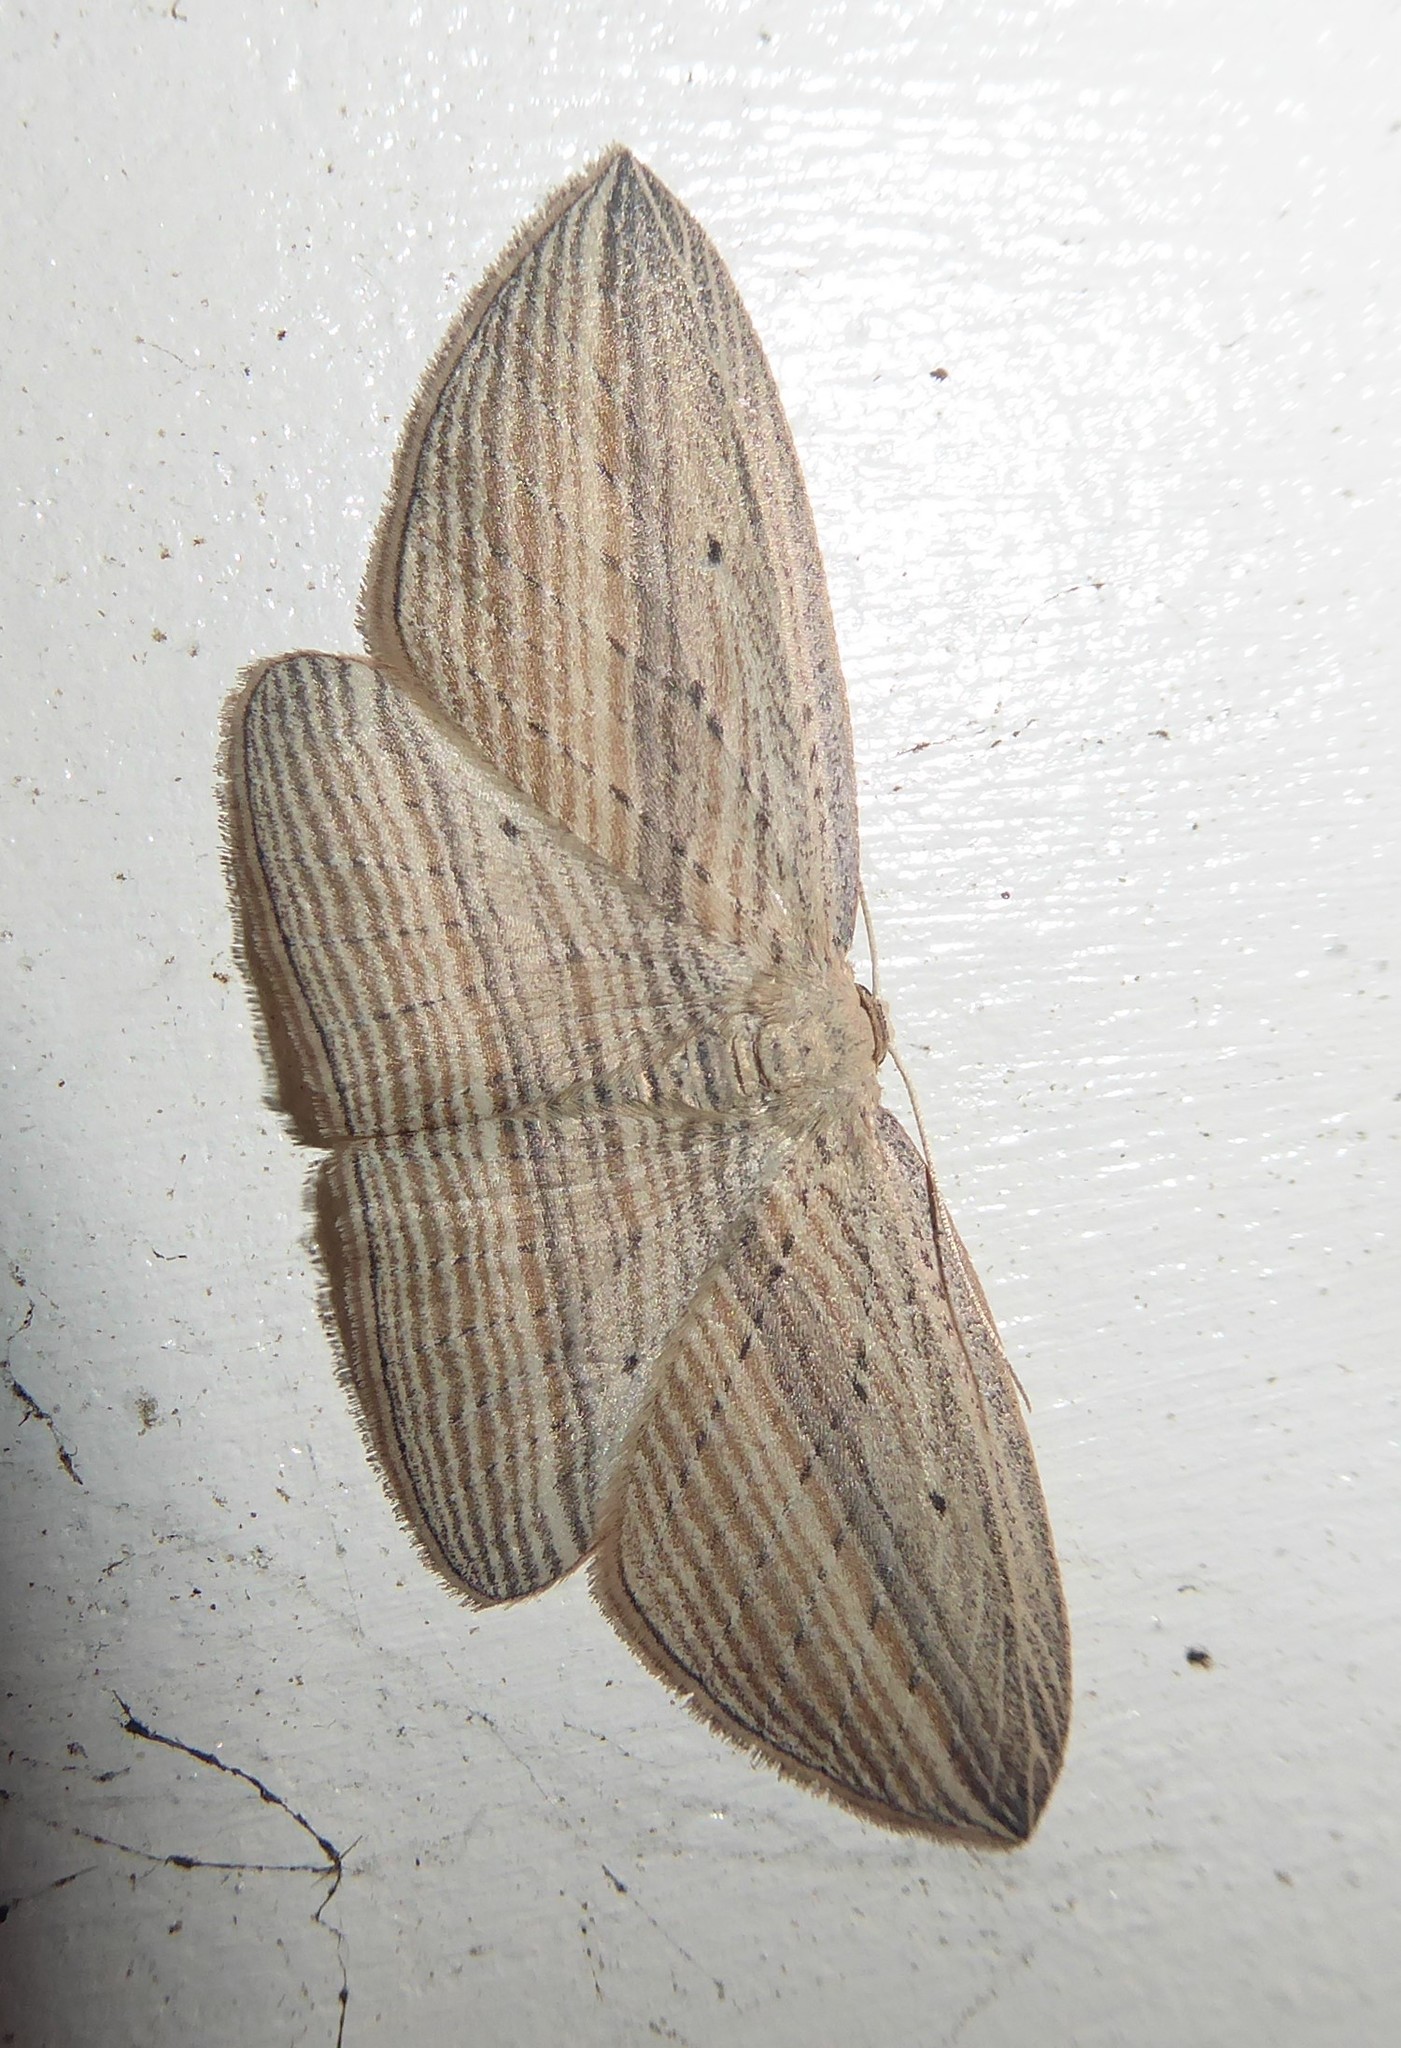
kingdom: Animalia
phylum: Arthropoda
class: Insecta
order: Lepidoptera
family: Geometridae
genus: Epiphryne
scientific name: Epiphryne verriculata
